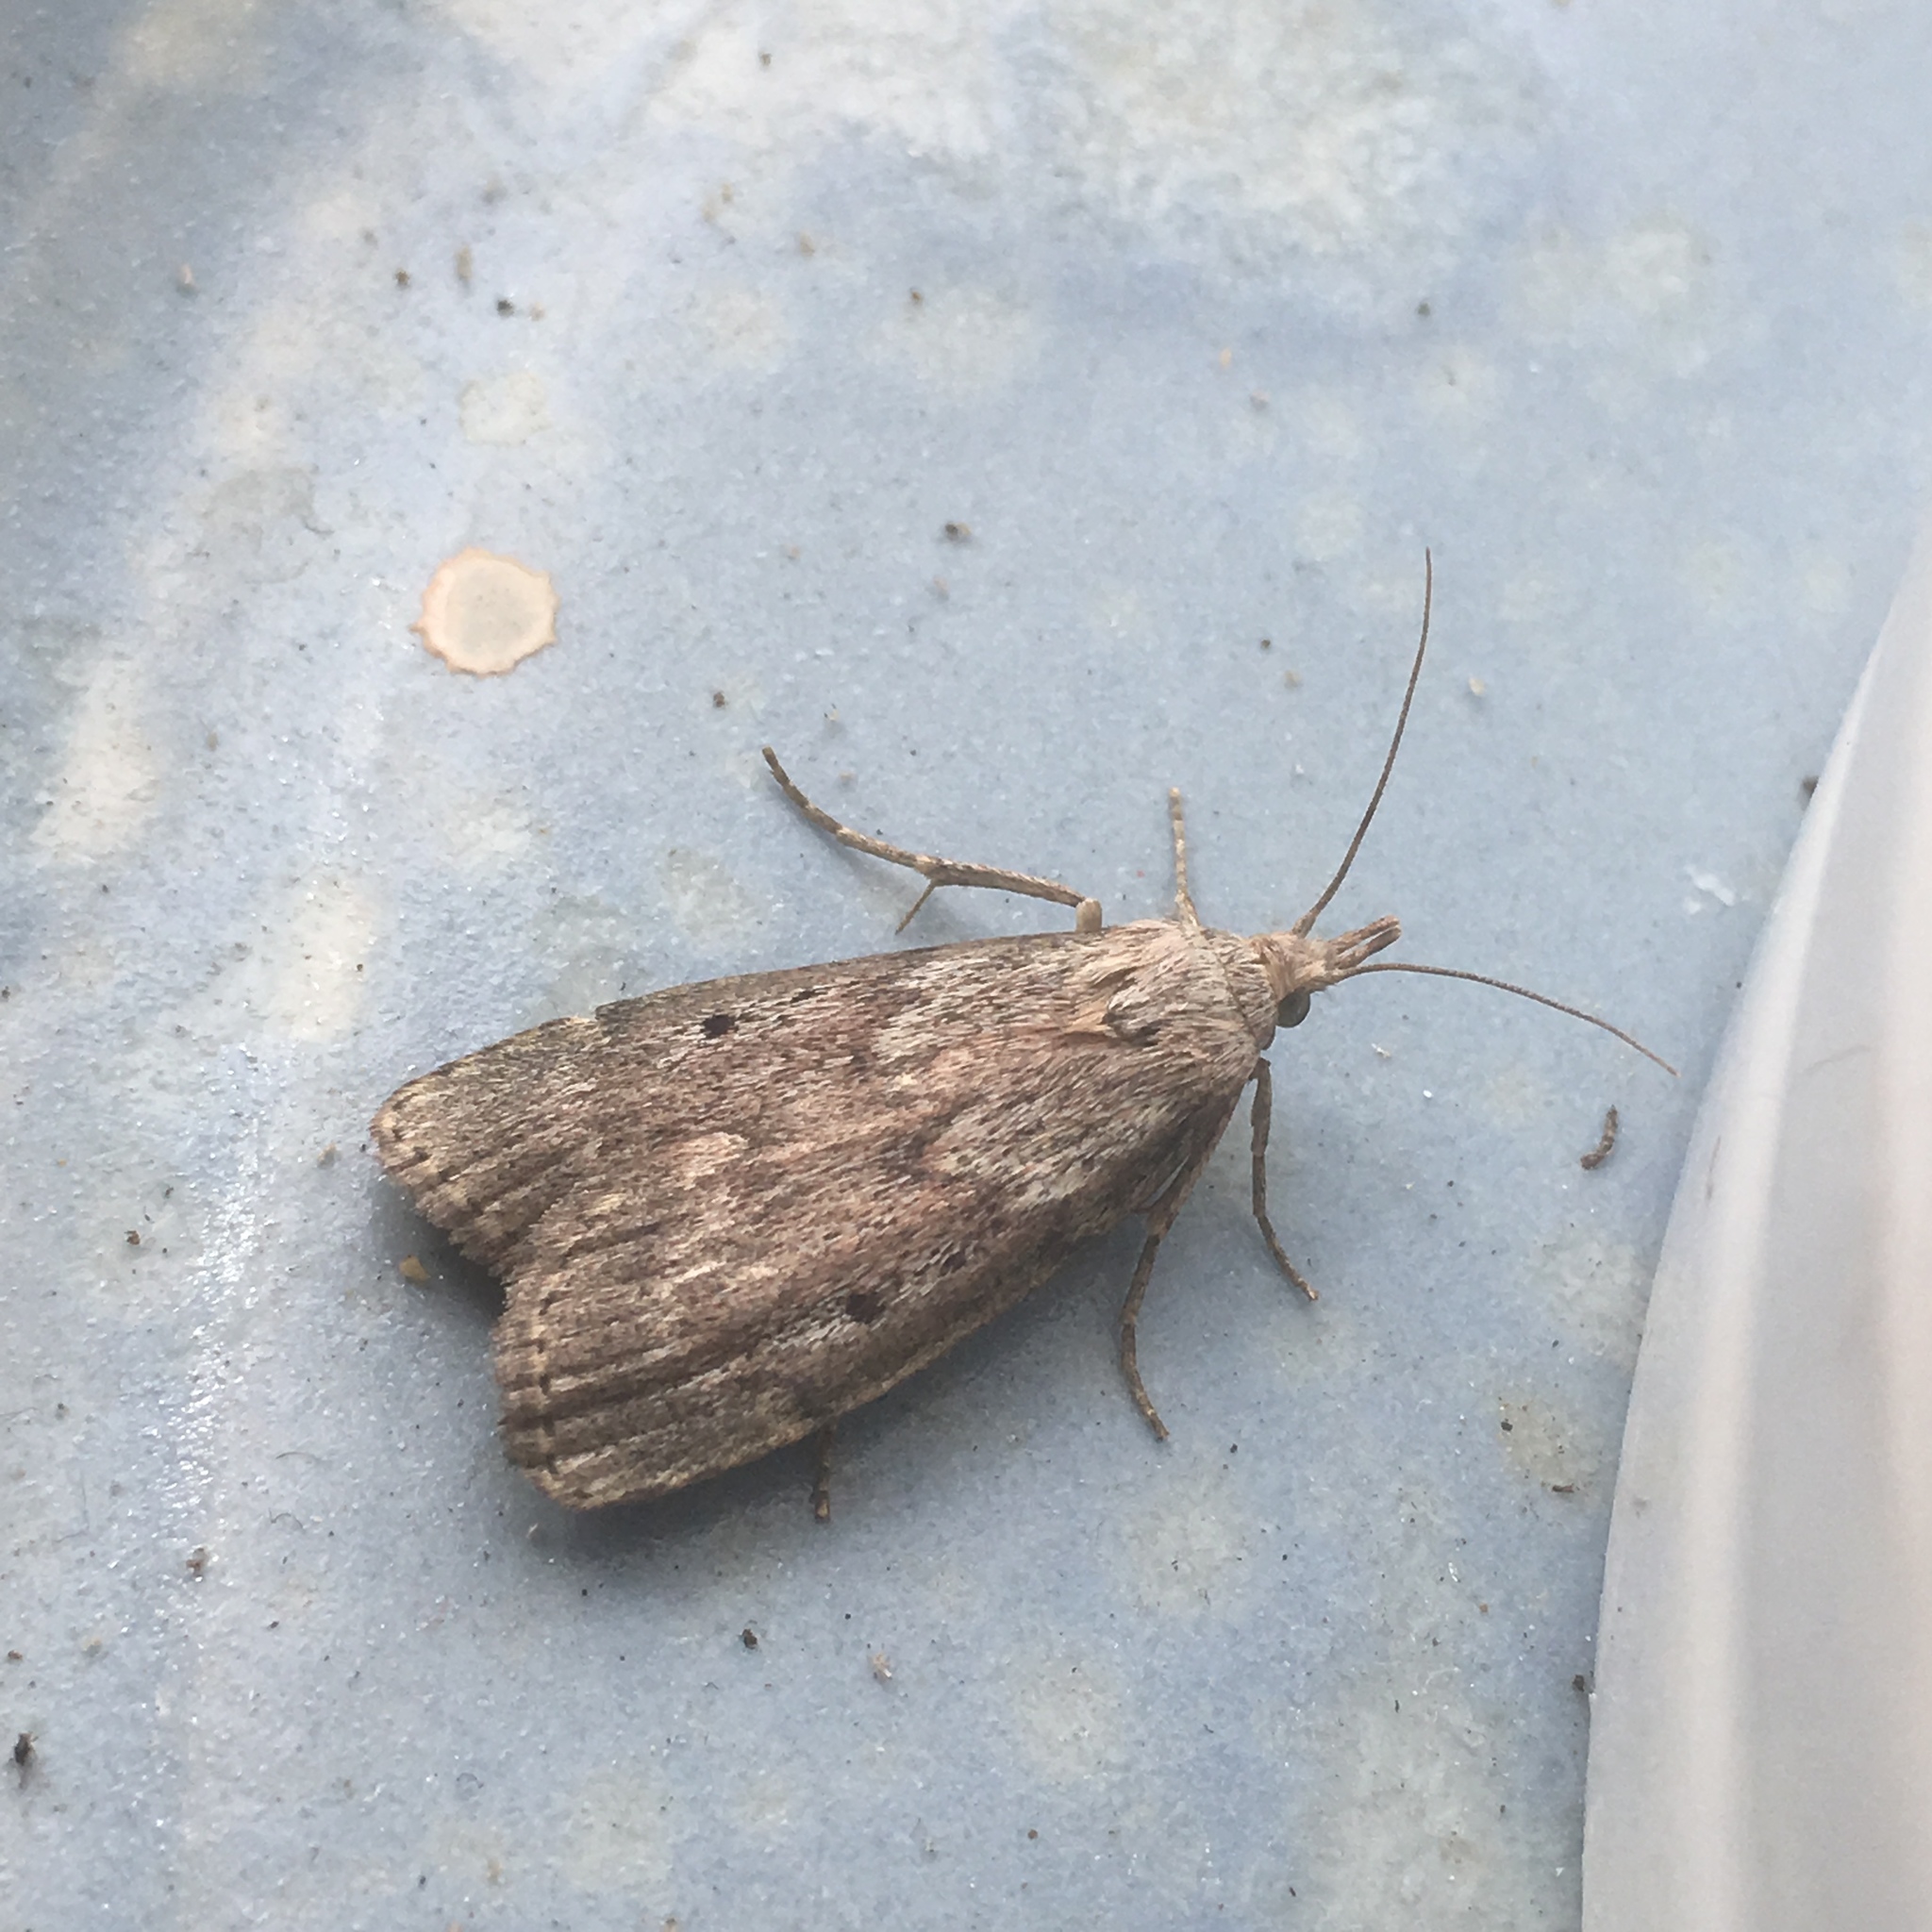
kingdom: Animalia
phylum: Arthropoda
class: Insecta
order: Lepidoptera
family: Pyralidae
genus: Aphomia
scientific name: Aphomia sociella
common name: Bee moth
